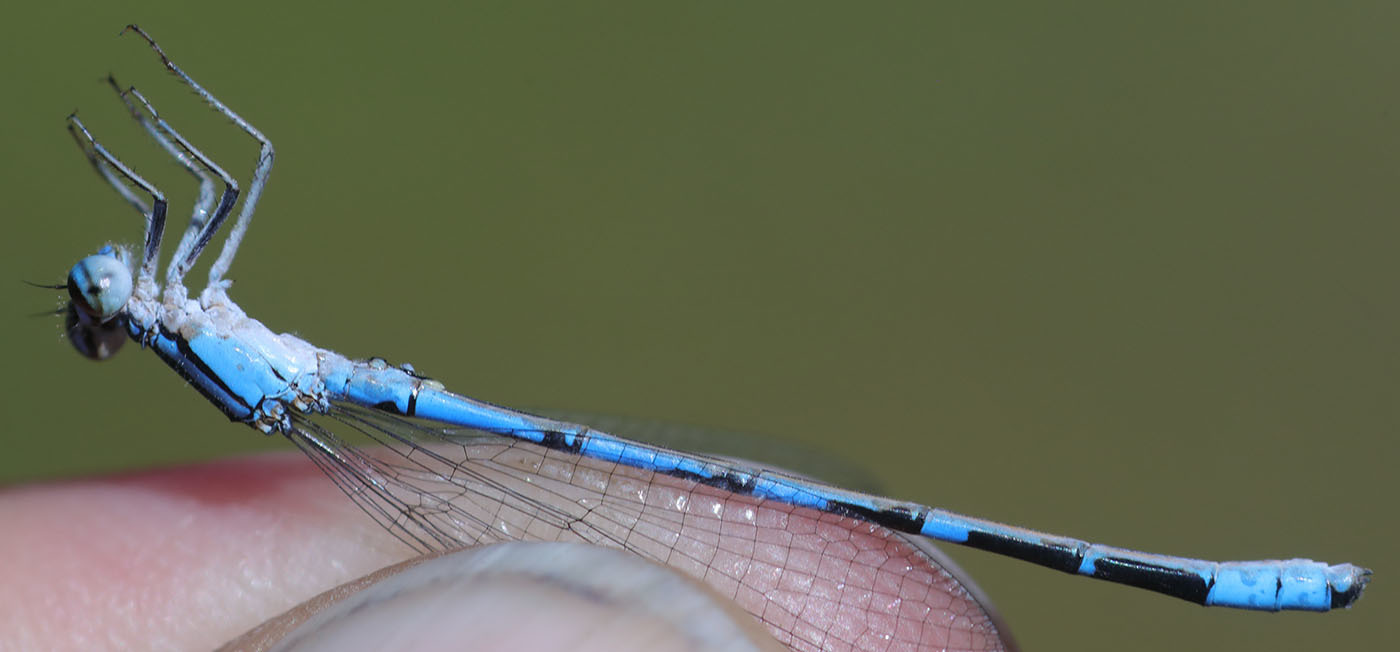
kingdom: Animalia
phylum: Arthropoda
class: Insecta
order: Odonata
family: Coenagrionidae
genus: Enallagma
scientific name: Enallagma annexum
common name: Northern bluet
